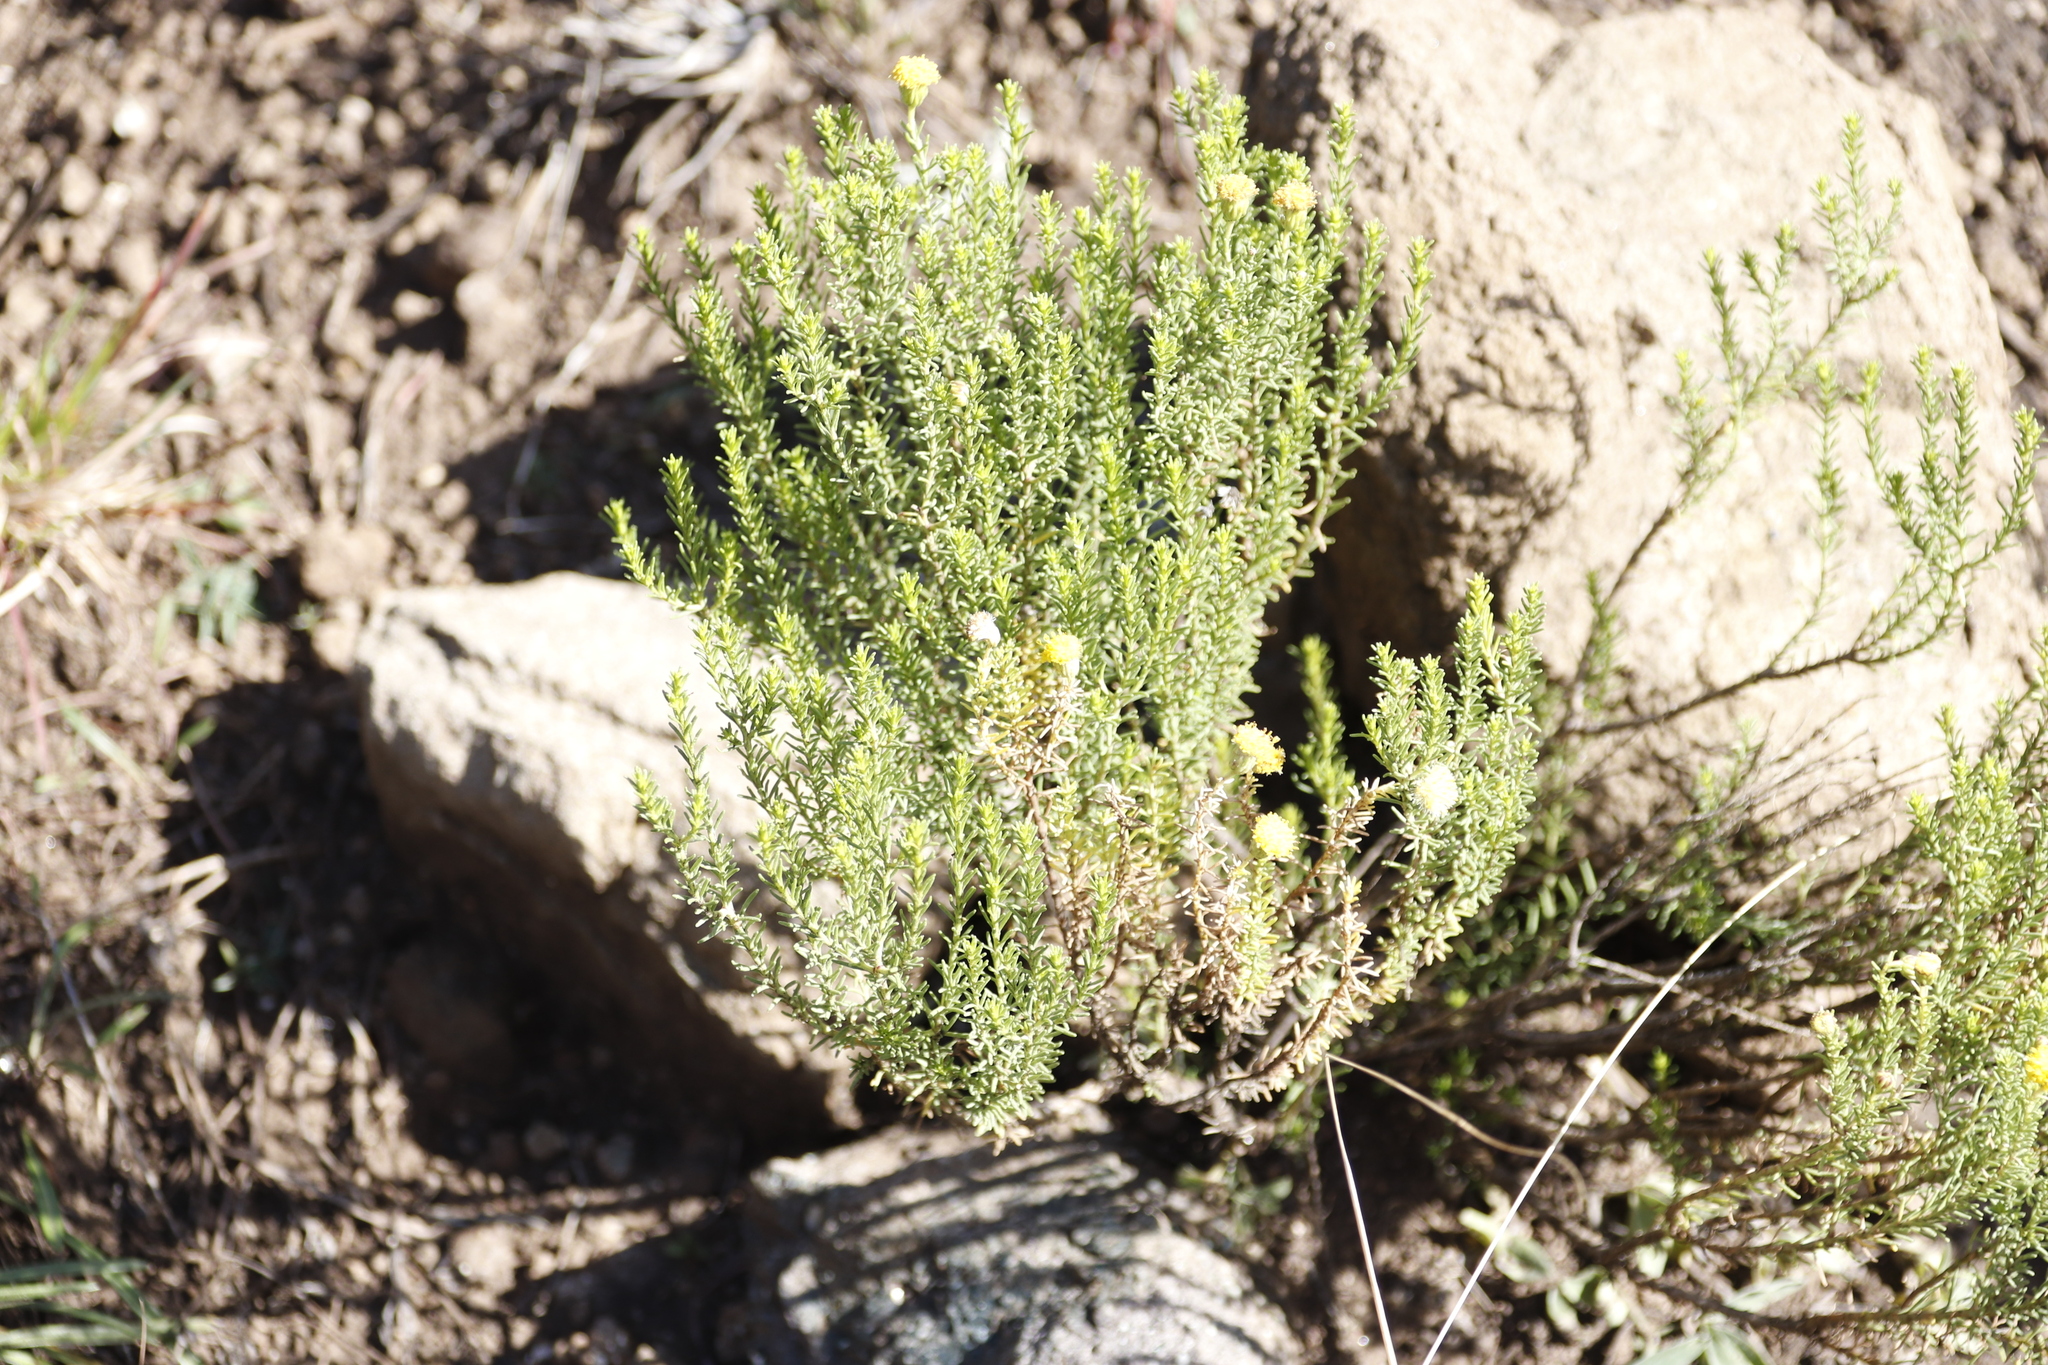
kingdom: Plantae
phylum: Tracheophyta
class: Magnoliopsida
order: Asterales
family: Asteraceae
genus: Chrysocoma
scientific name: Chrysocoma ciliata
